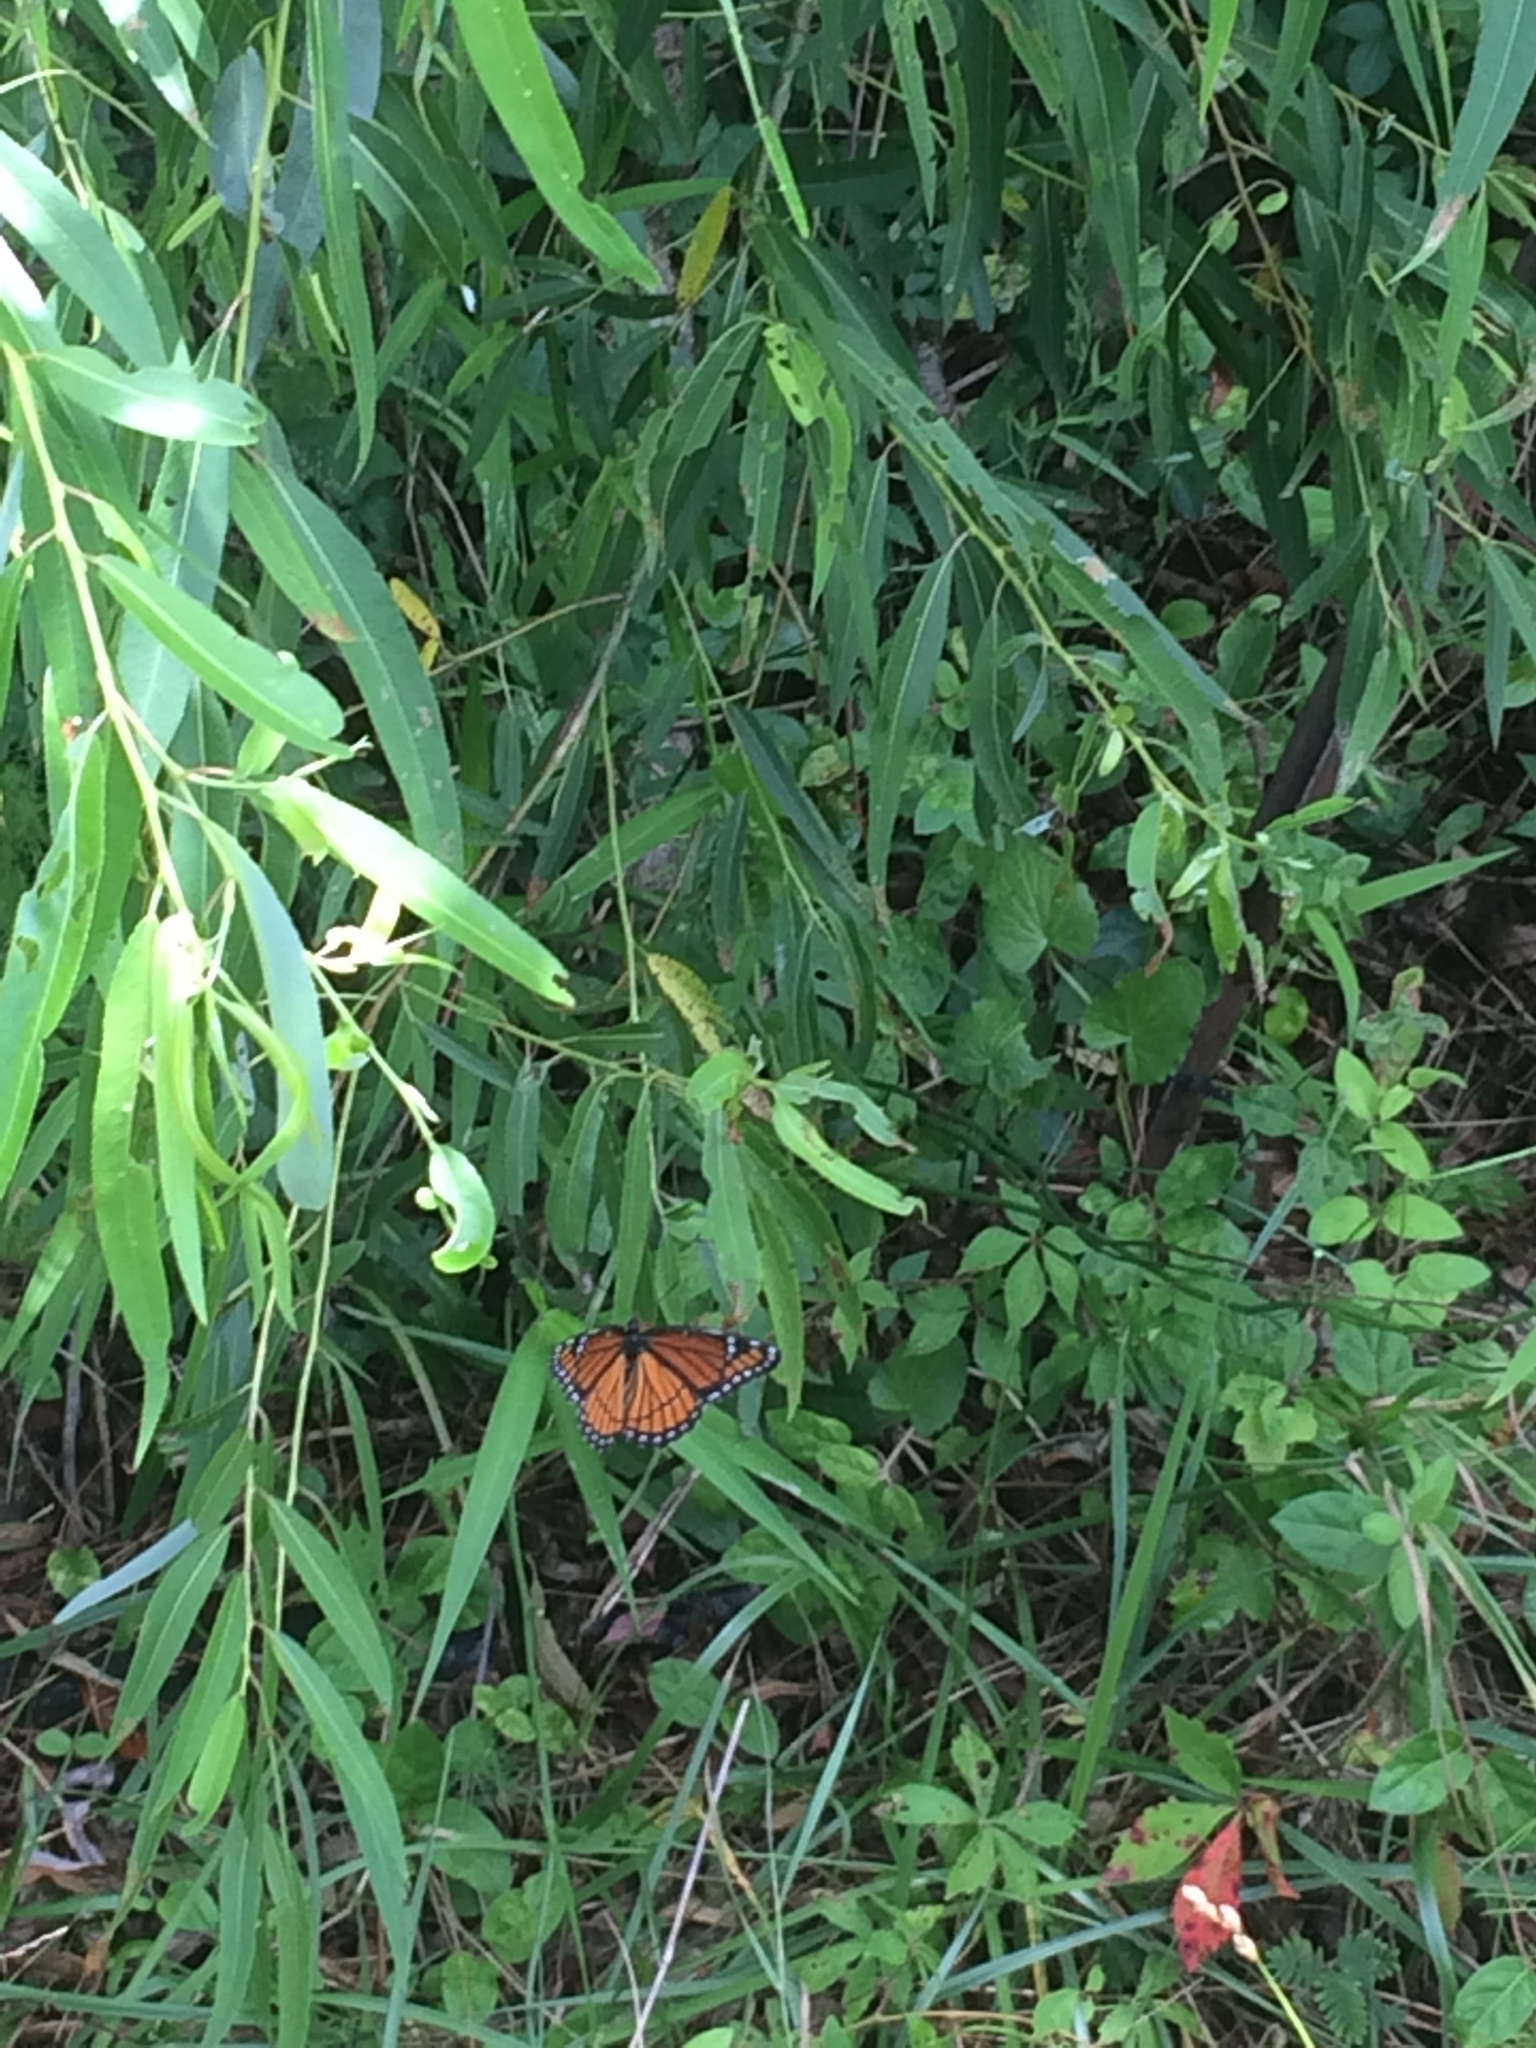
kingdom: Animalia
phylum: Arthropoda
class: Insecta
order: Lepidoptera
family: Nymphalidae
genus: Limenitis
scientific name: Limenitis archippus
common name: Viceroy
